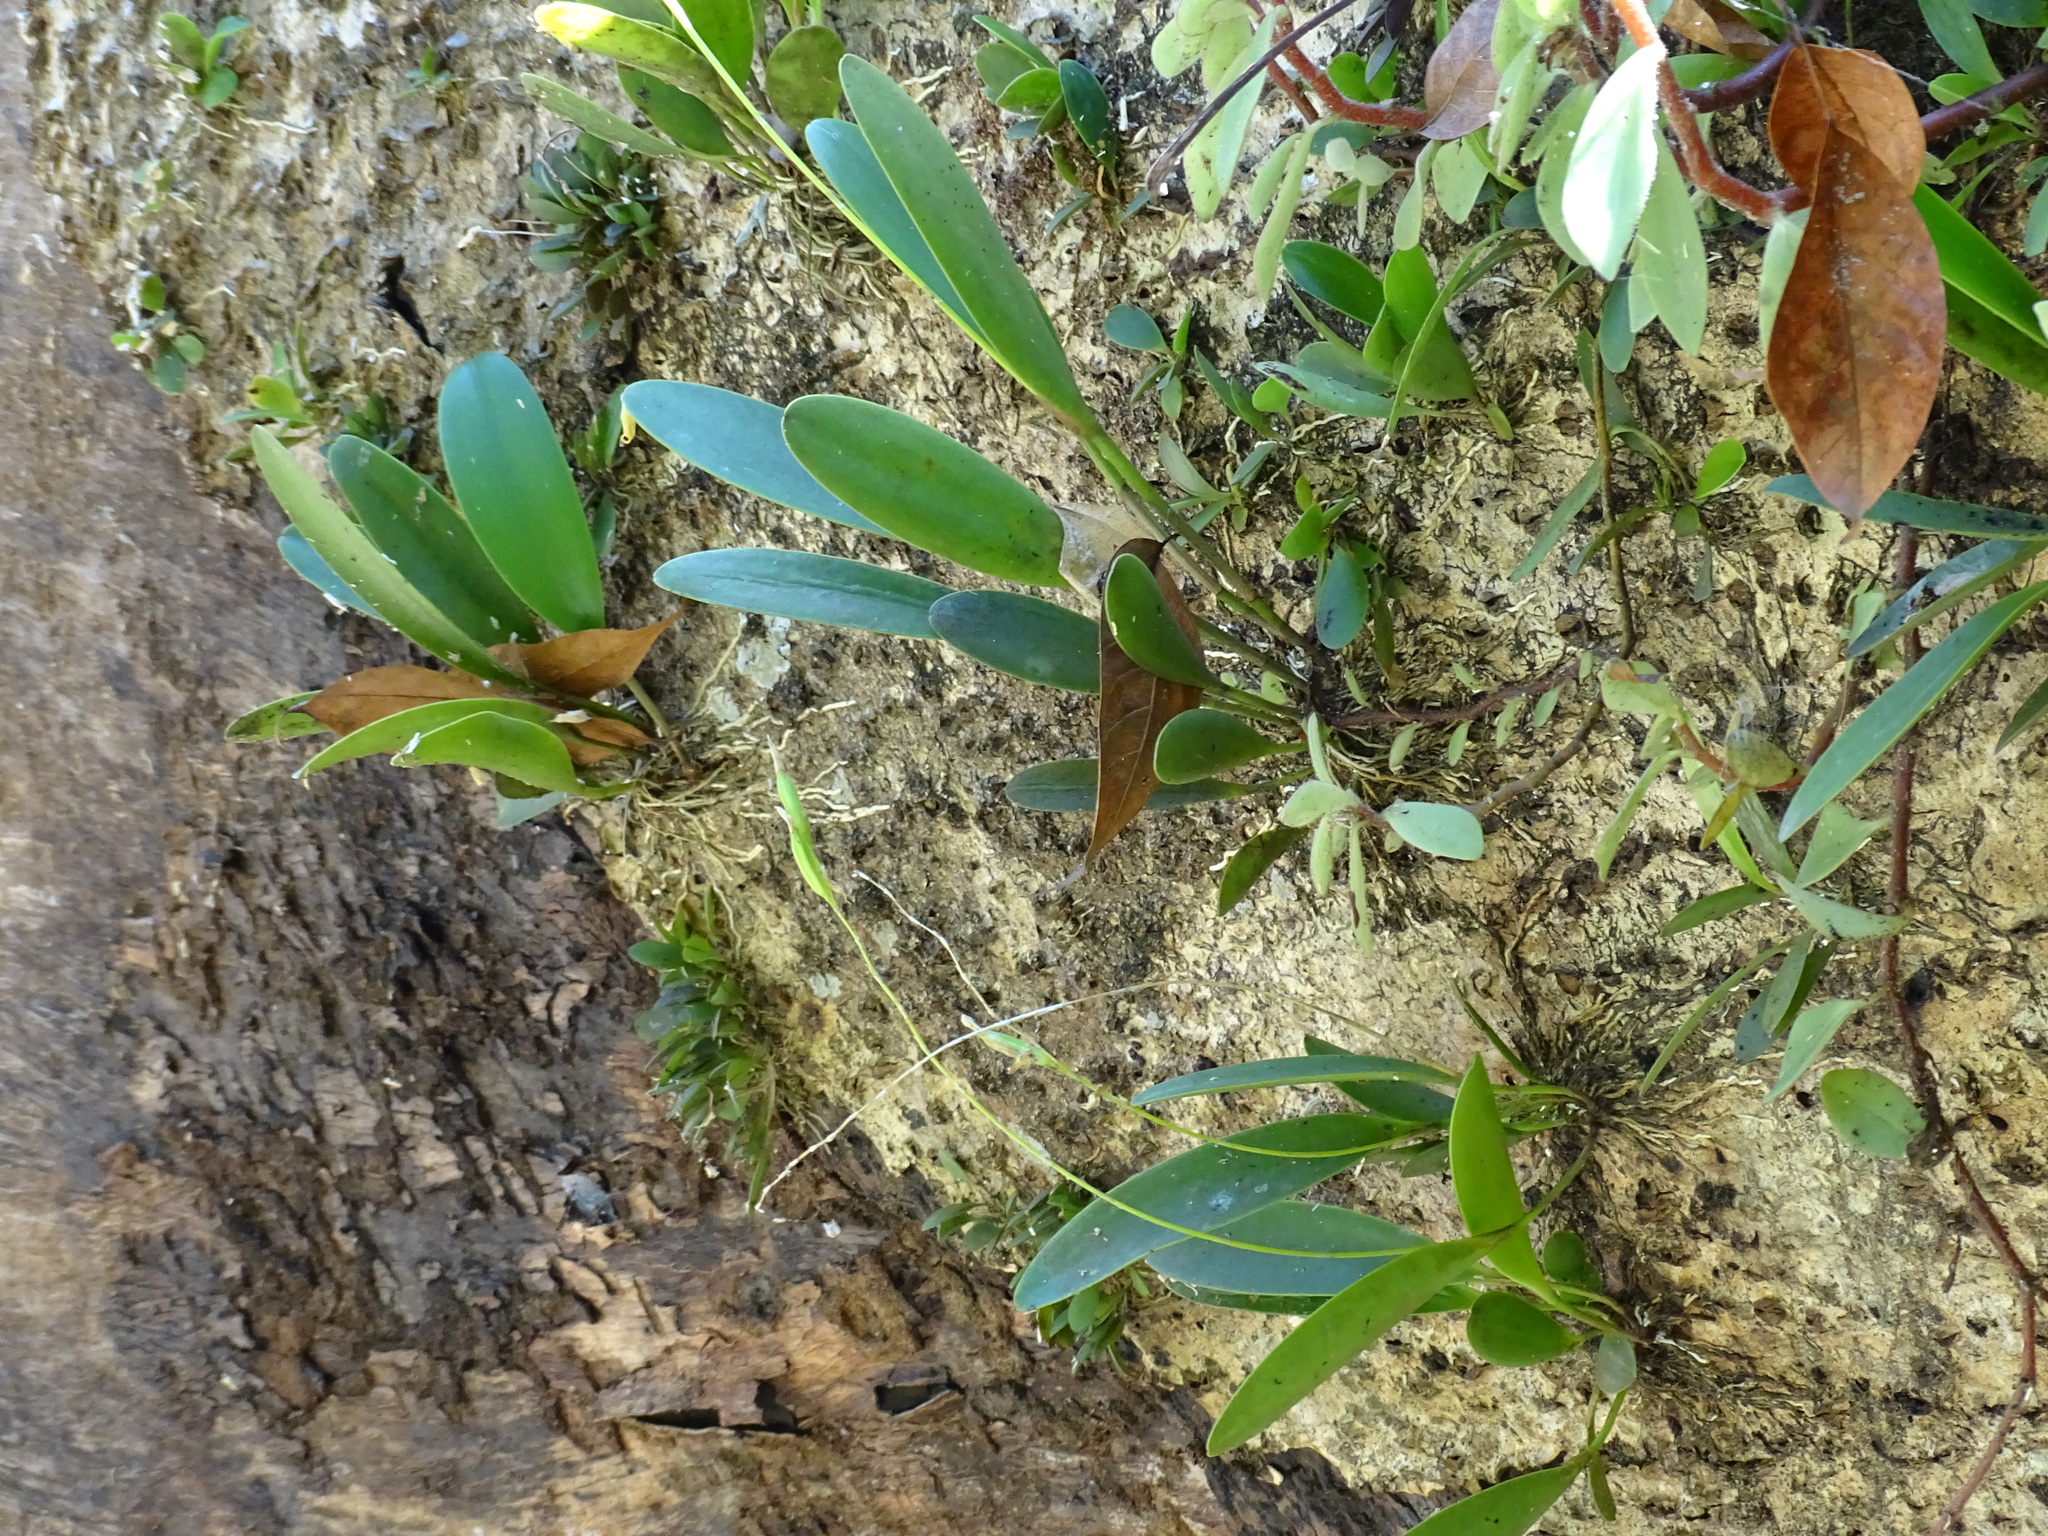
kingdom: Plantae
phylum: Tracheophyta
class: Liliopsida
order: Asparagales
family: Orchidaceae
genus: Pleurothallis
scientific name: Pleurothallis quadrifida
